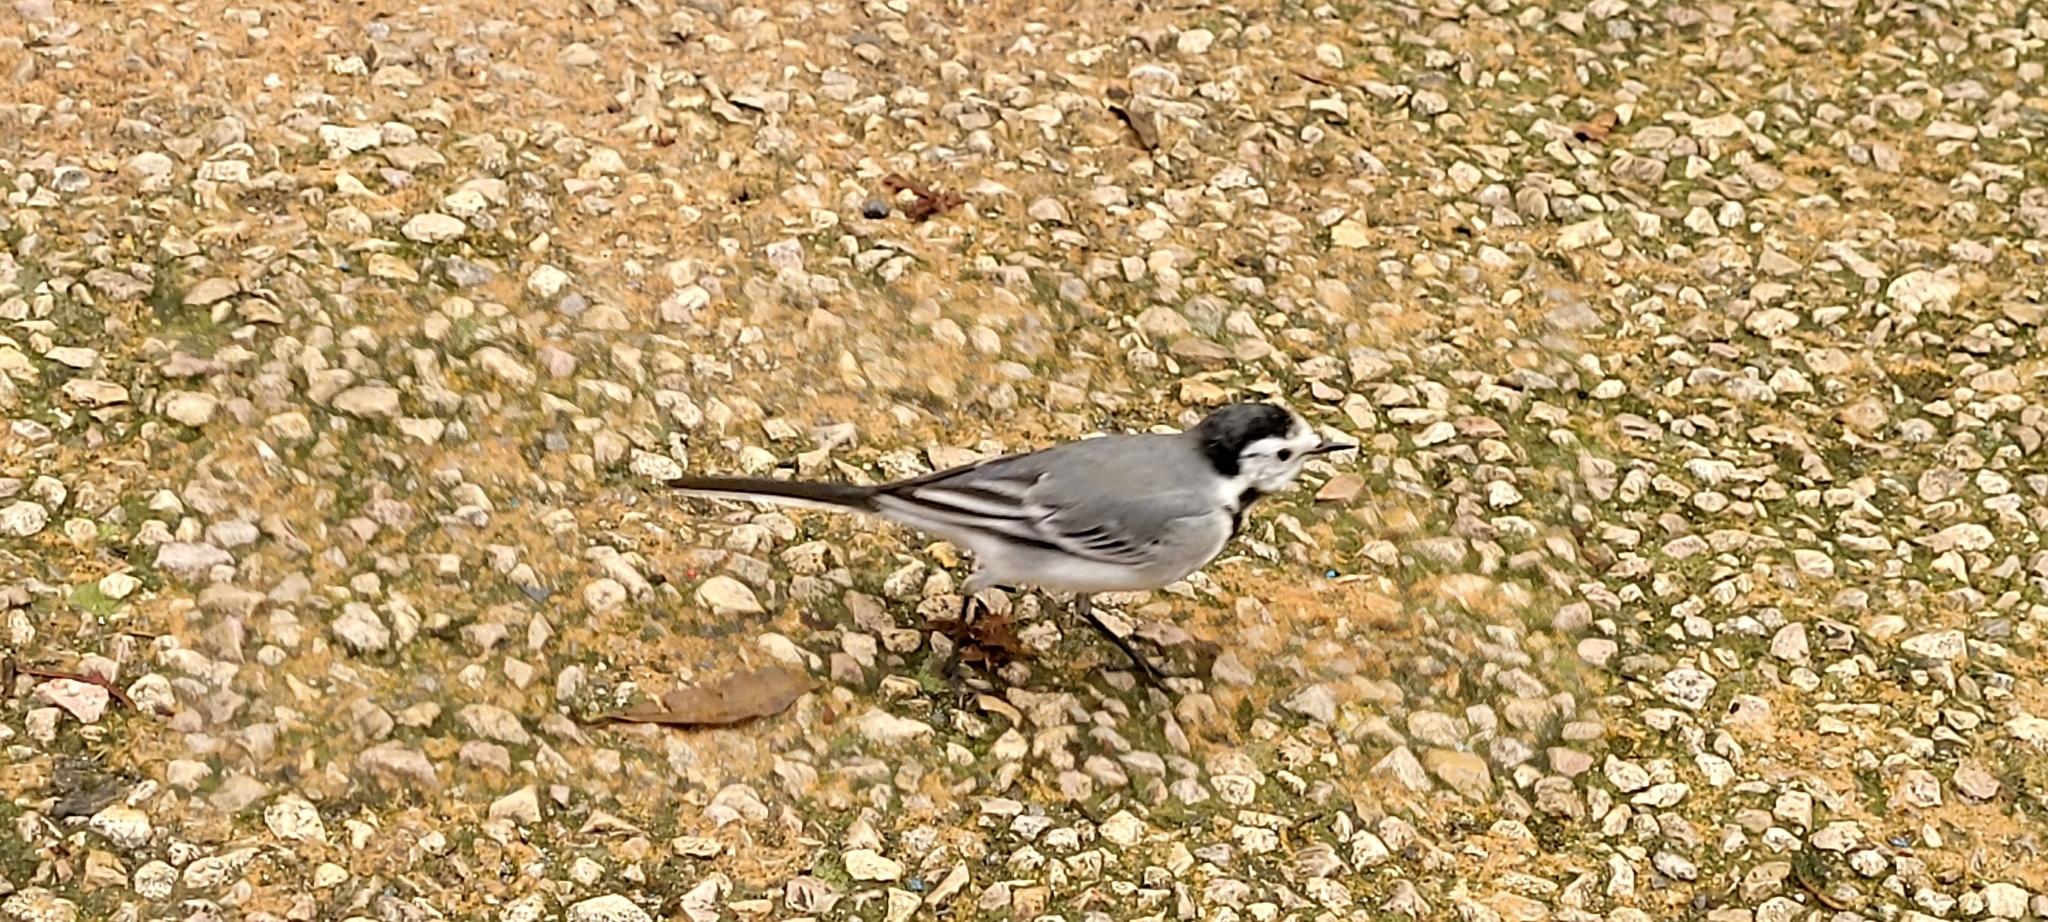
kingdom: Animalia
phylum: Chordata
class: Aves
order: Passeriformes
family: Motacillidae
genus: Motacilla
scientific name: Motacilla alba
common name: White wagtail
